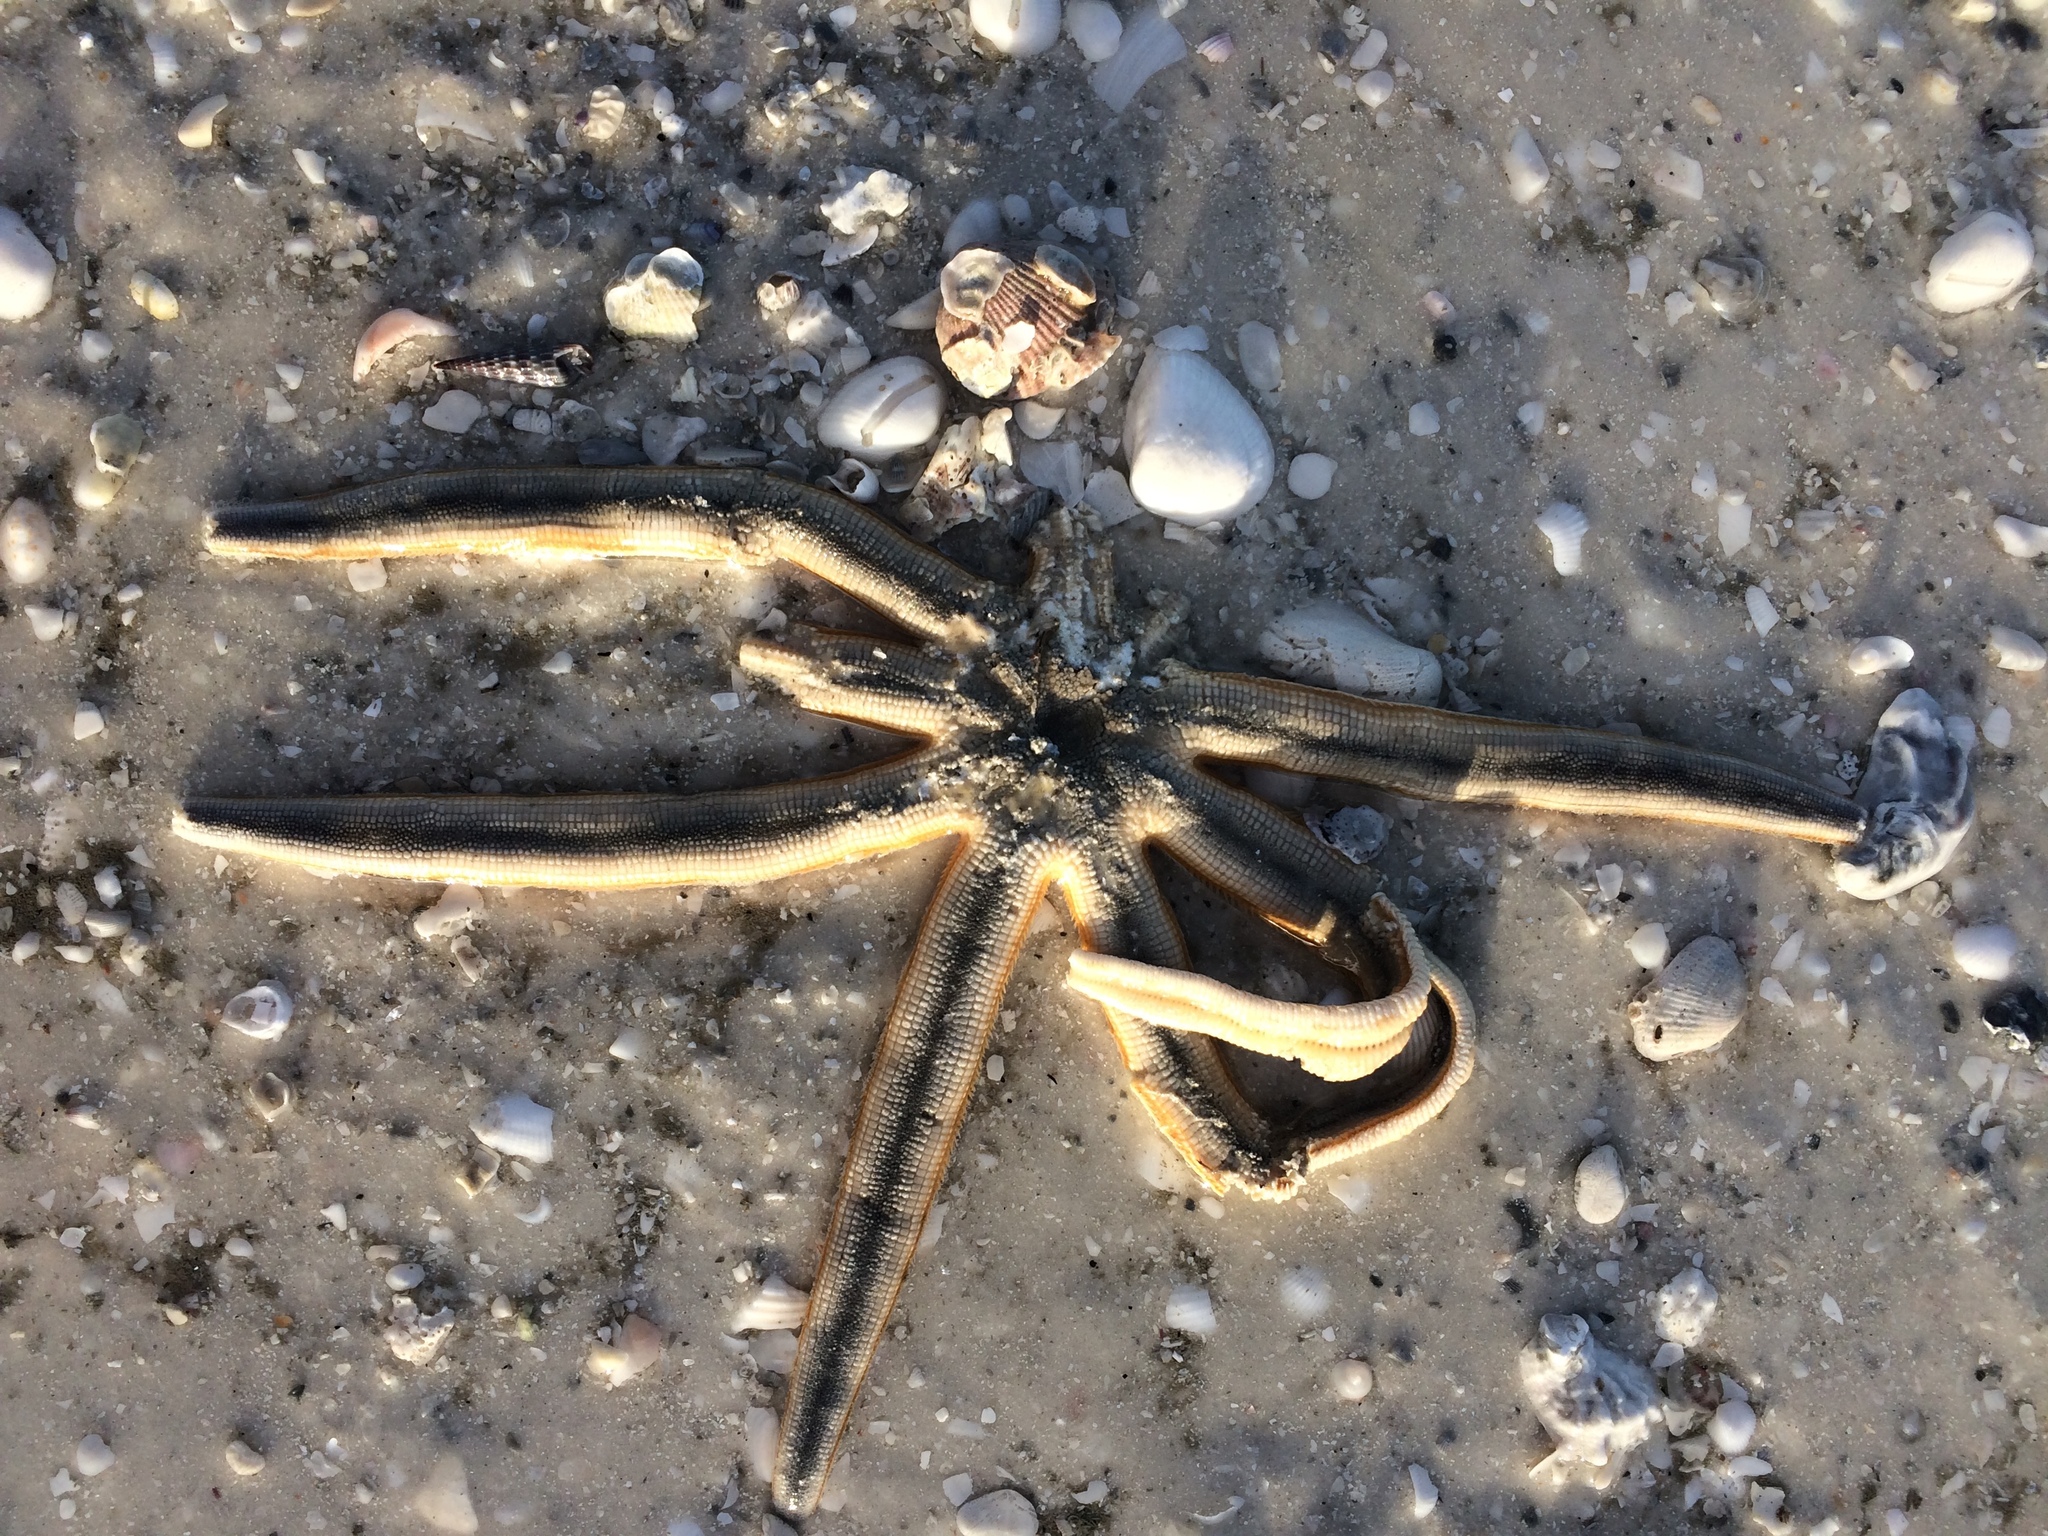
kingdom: Animalia
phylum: Echinodermata
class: Asteroidea
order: Paxillosida
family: Luidiidae
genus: Luidia
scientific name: Luidia senegalensis
